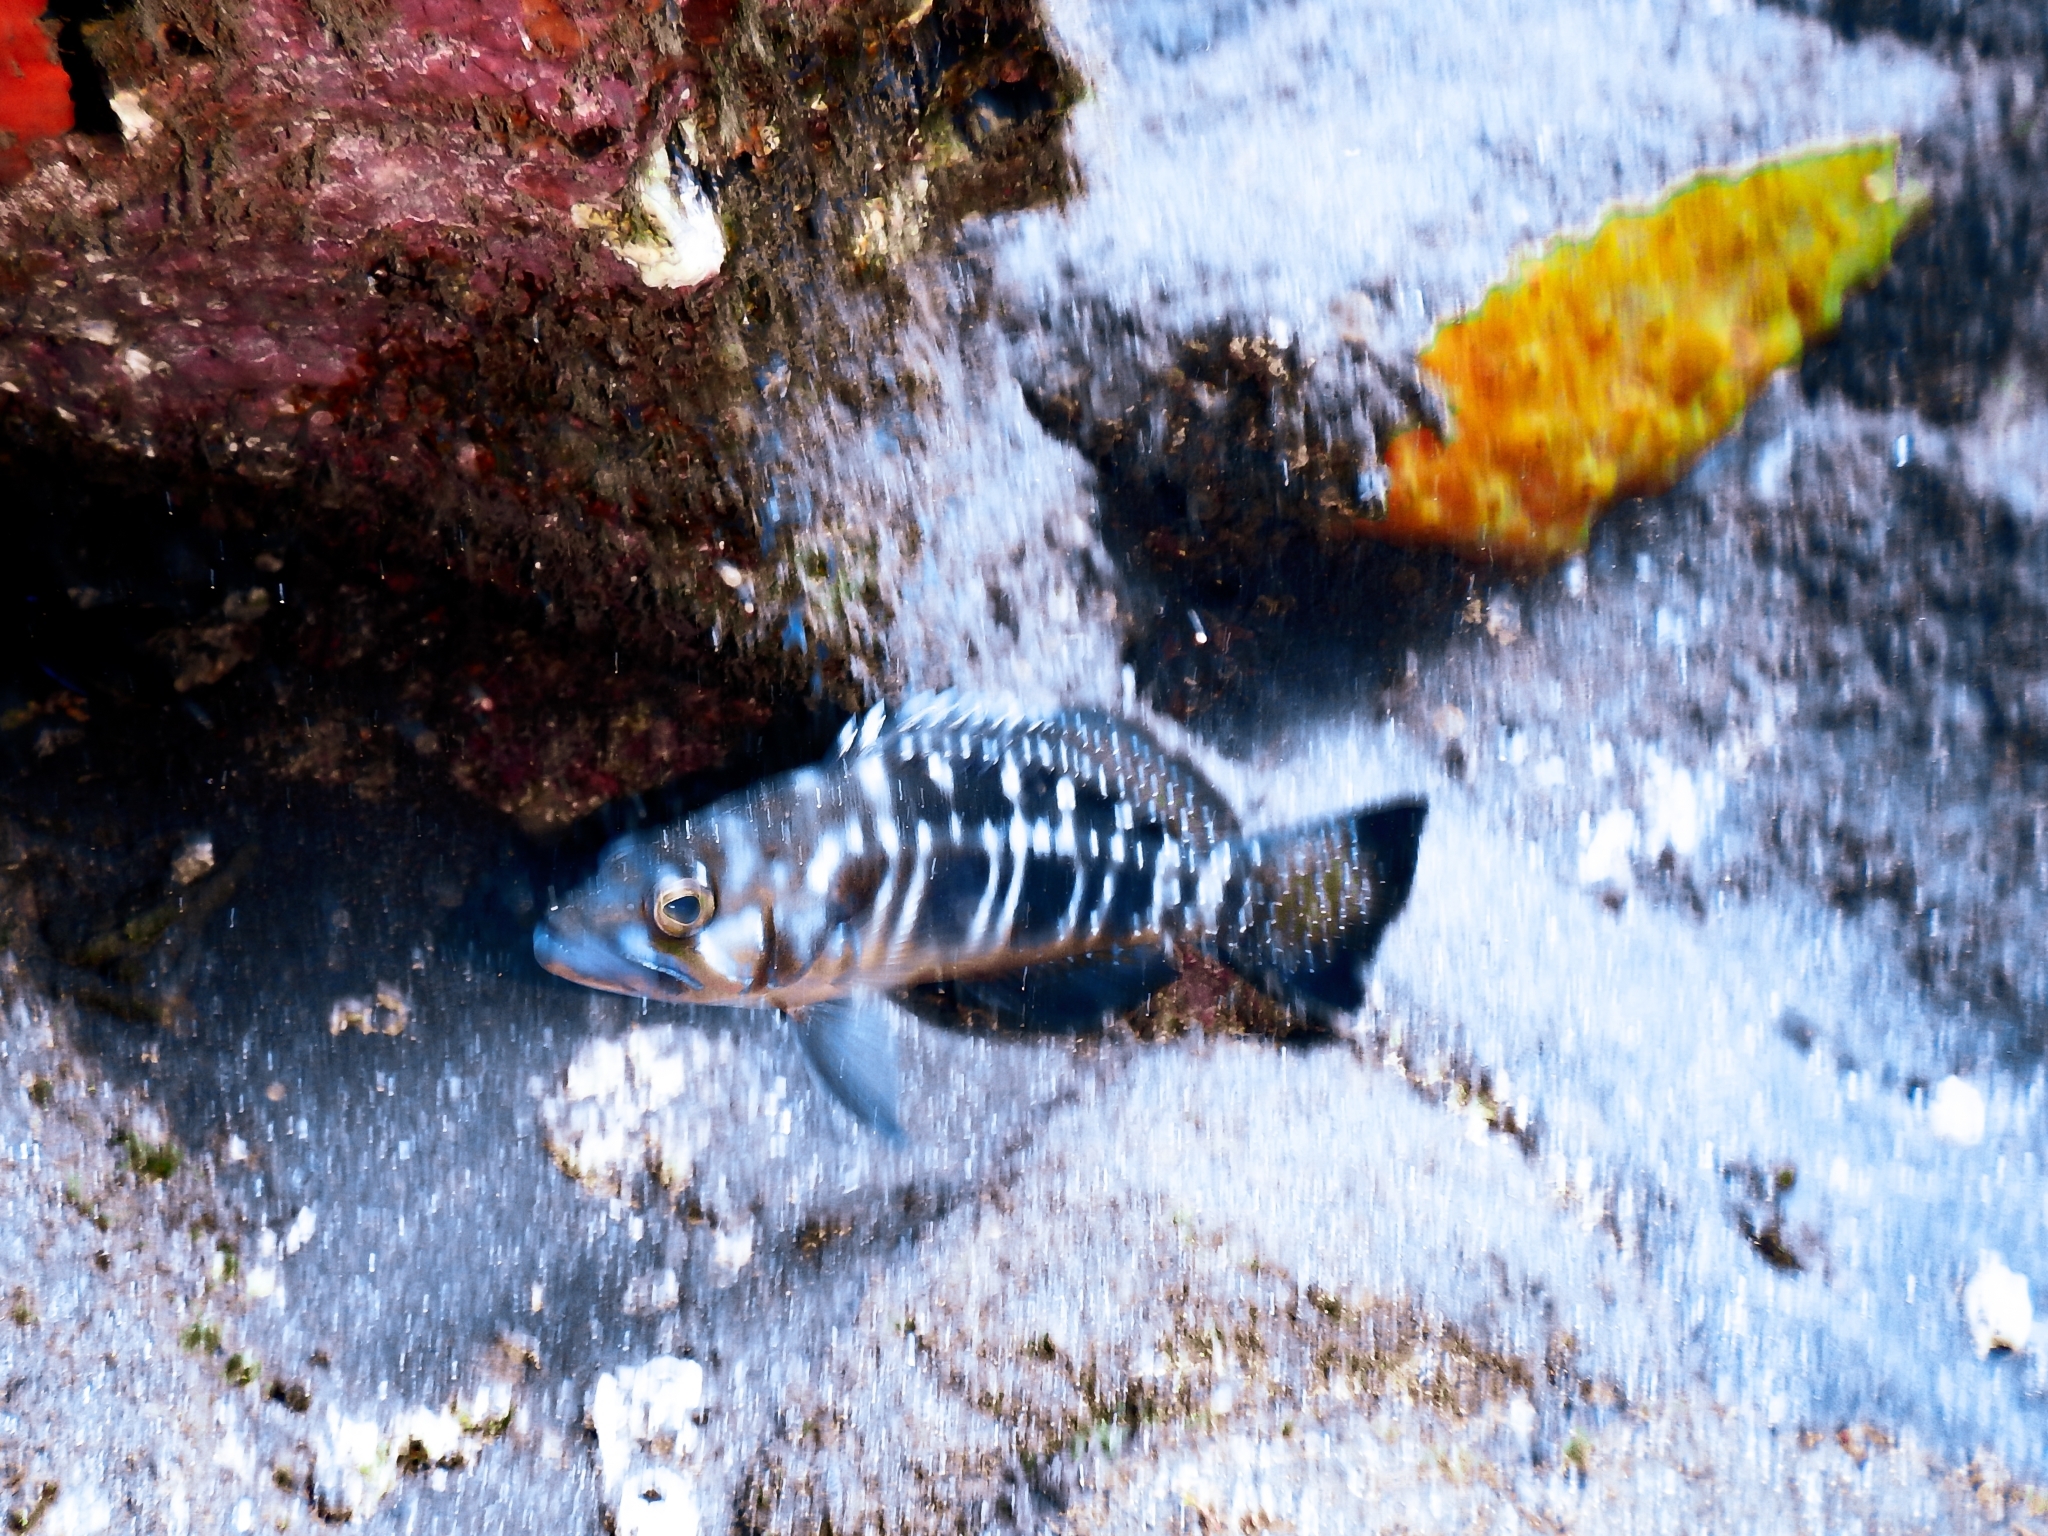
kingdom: Animalia
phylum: Chordata
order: Perciformes
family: Serranidae
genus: Serranus
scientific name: Serranus atricauda
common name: Blacktail comber
